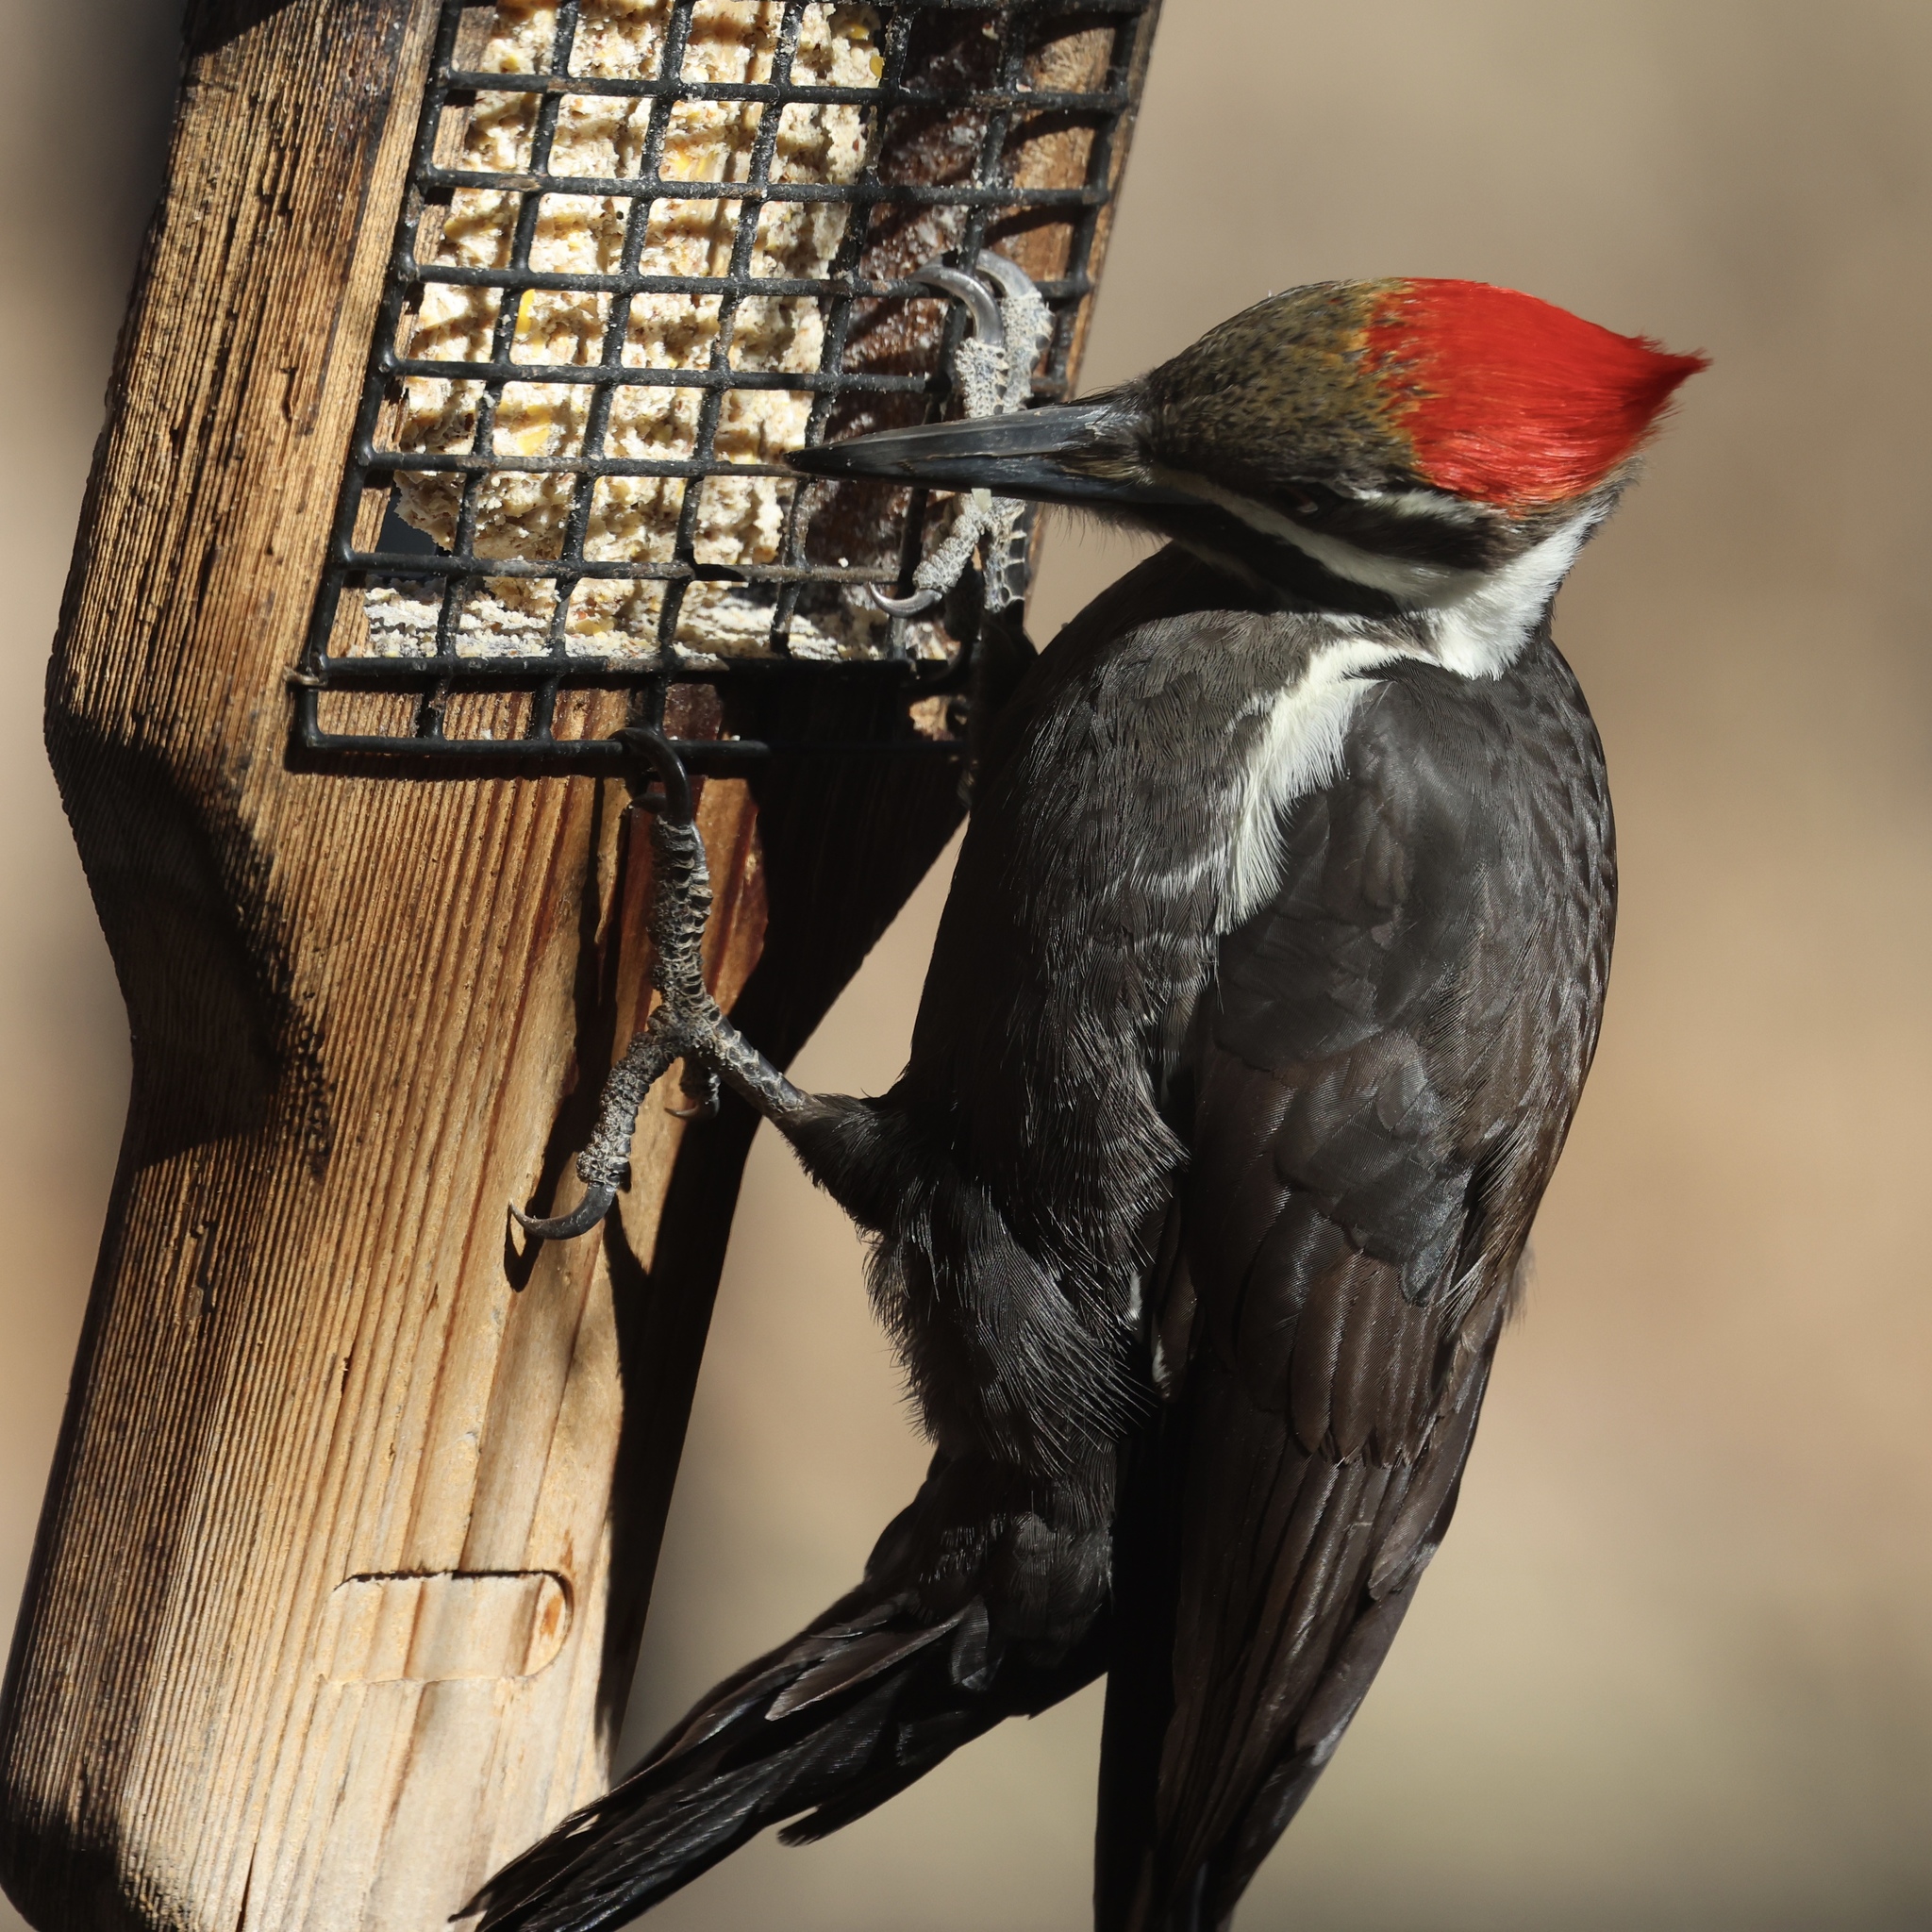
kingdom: Animalia
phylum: Chordata
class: Aves
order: Piciformes
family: Picidae
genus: Dryocopus
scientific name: Dryocopus pileatus
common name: Pileated woodpecker
